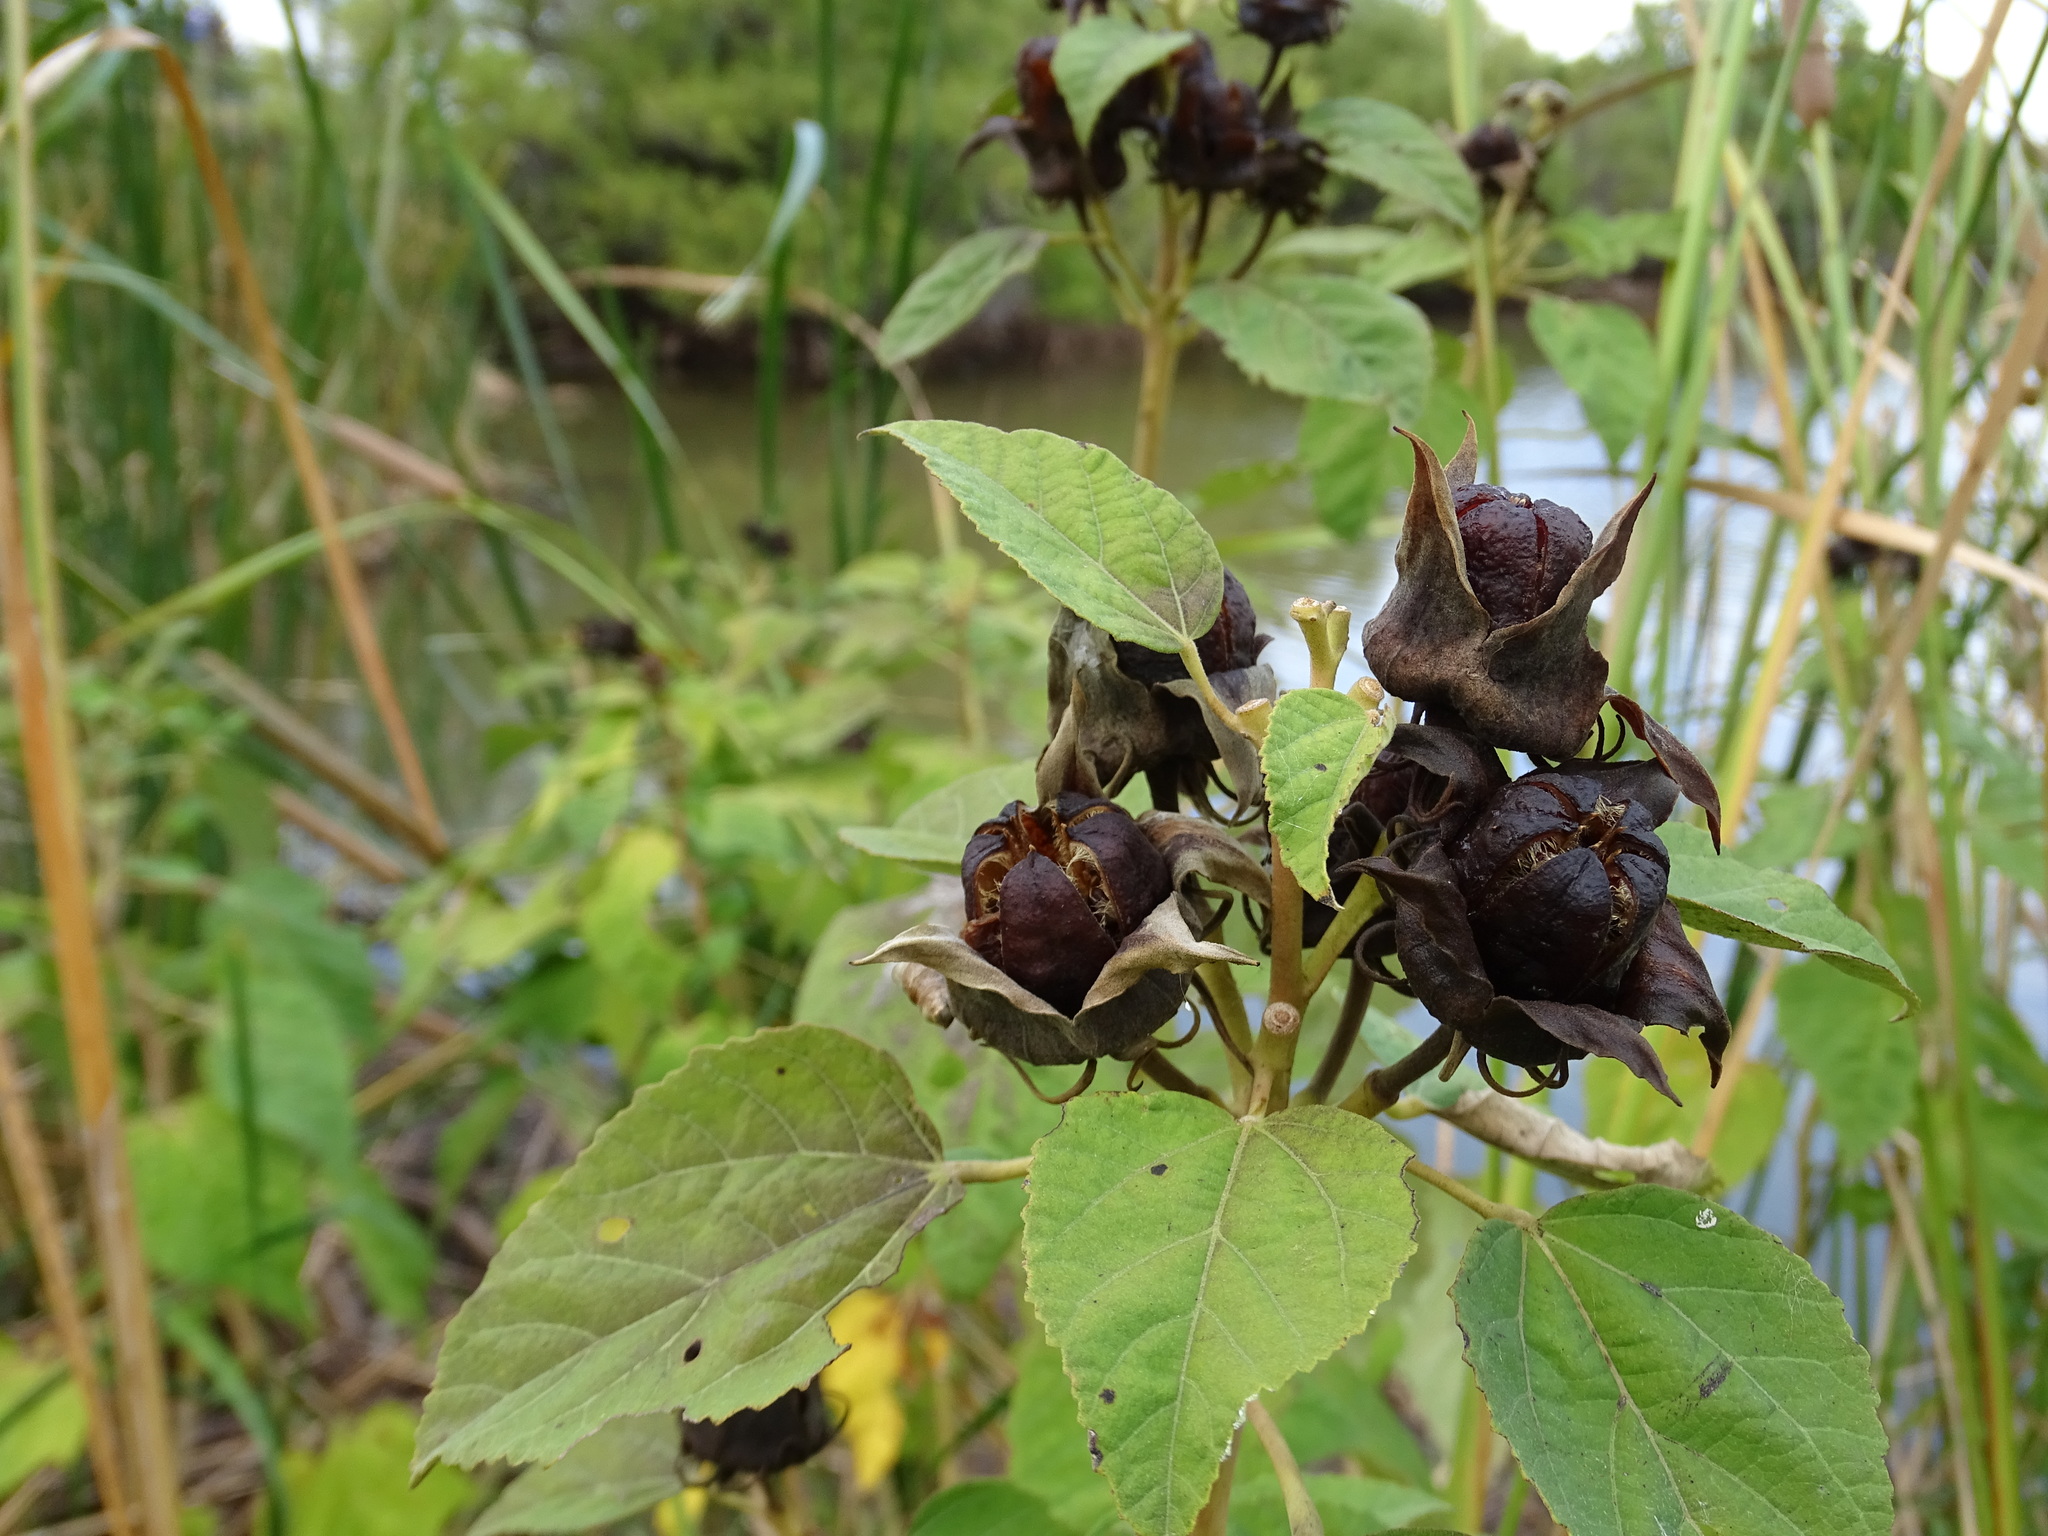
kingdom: Plantae
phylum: Tracheophyta
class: Magnoliopsida
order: Malvales
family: Malvaceae
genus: Hibiscus
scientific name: Hibiscus moscheutos
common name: Common rose-mallow
